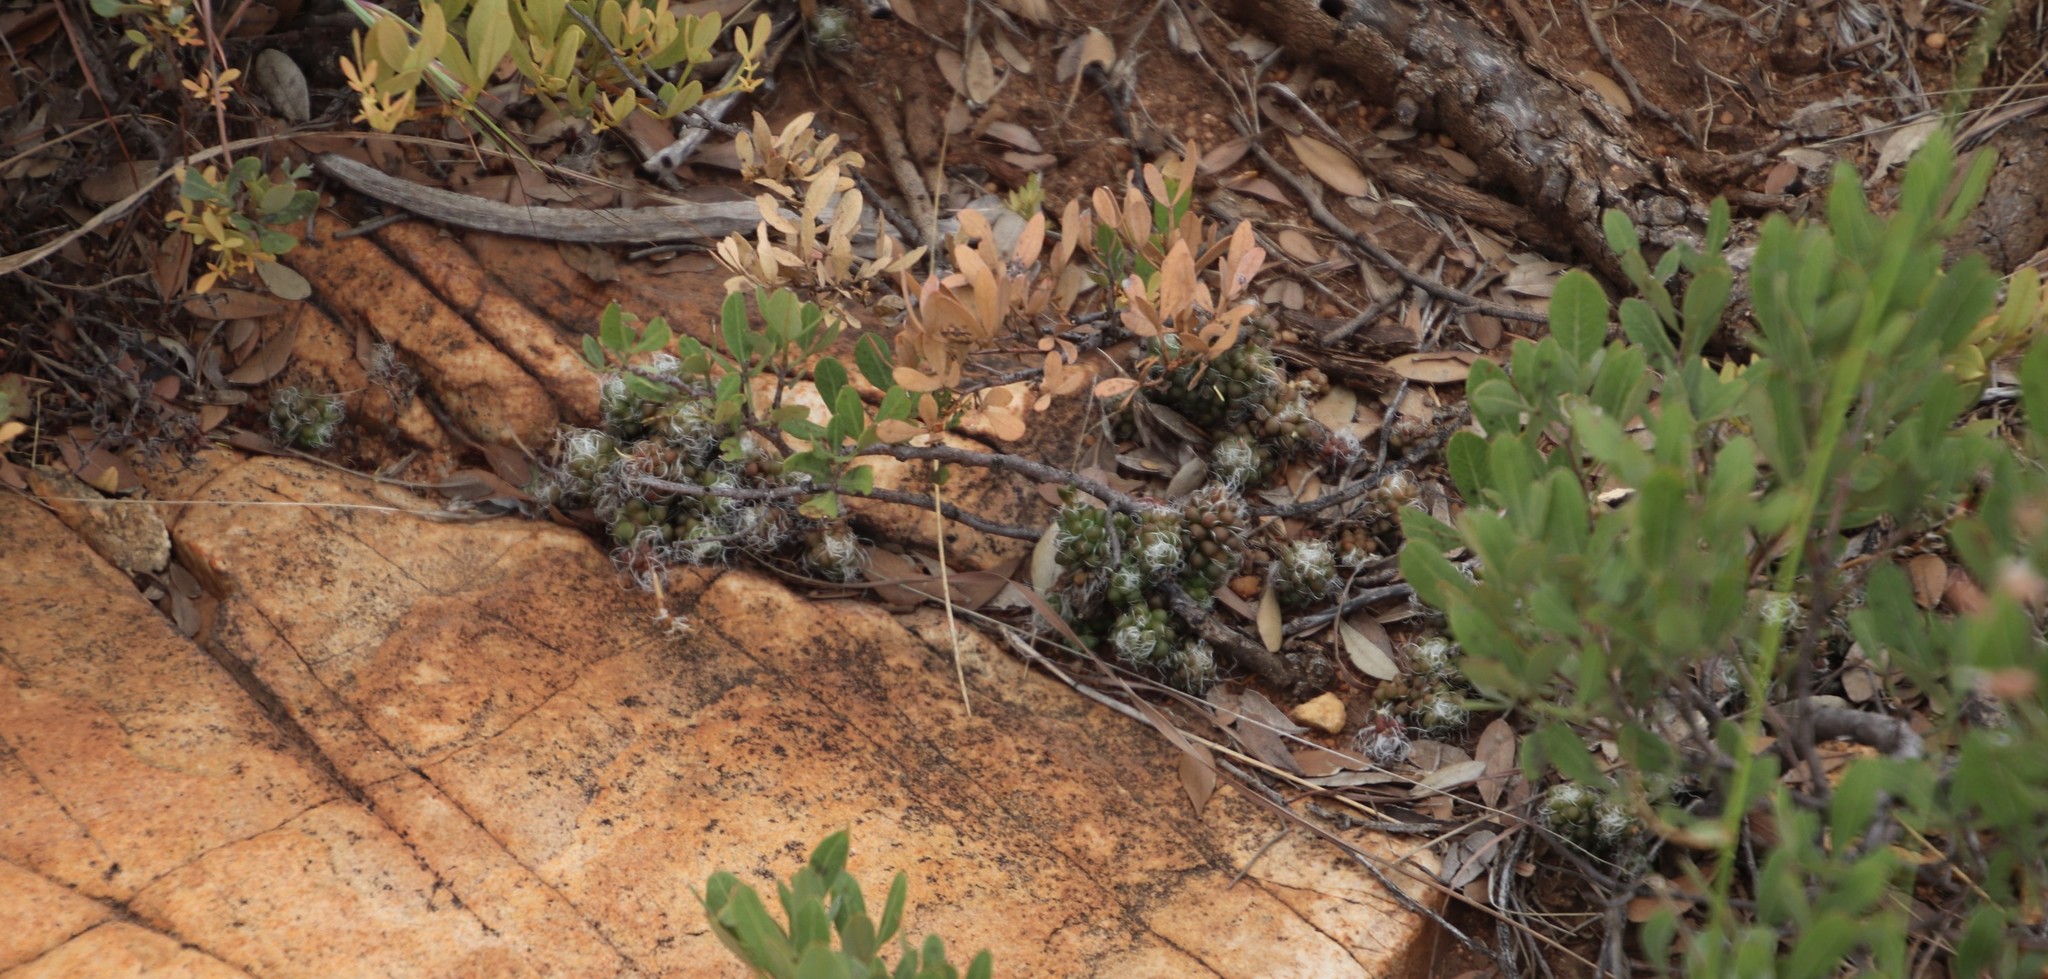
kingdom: Plantae
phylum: Tracheophyta
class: Magnoliopsida
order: Caryophyllales
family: Anacampserotaceae
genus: Anacampseros
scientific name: Anacampseros decapitata
